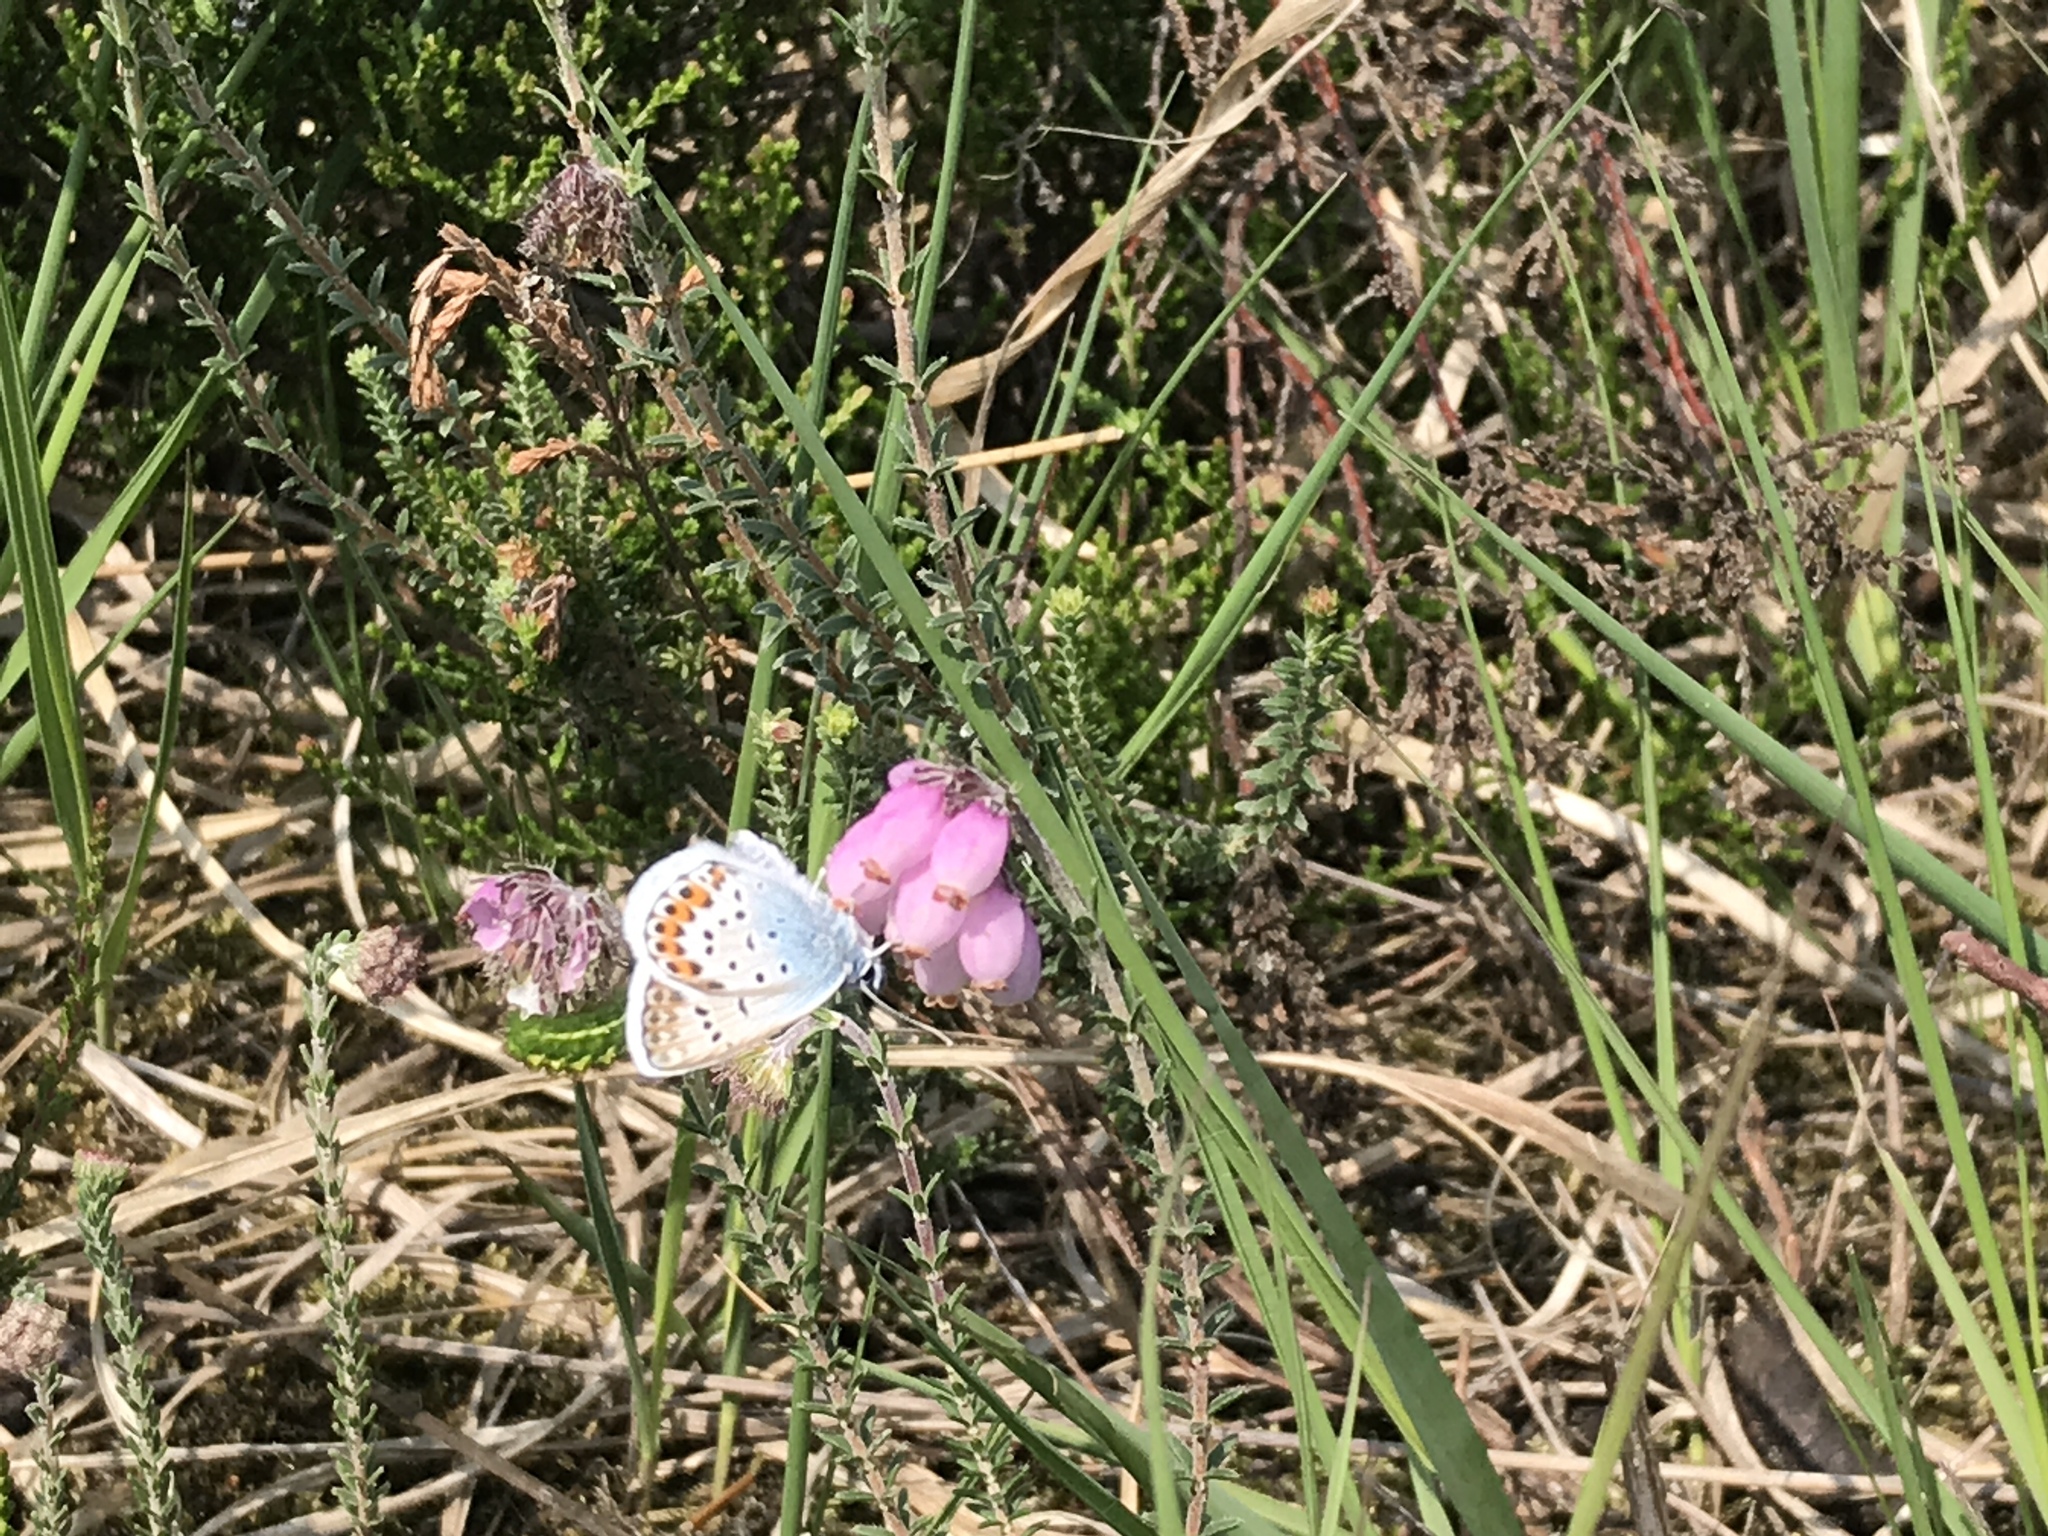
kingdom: Animalia
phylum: Arthropoda
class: Insecta
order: Lepidoptera
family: Lycaenidae
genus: Plebejus
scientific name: Plebejus argus
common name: Silver-studded blue
